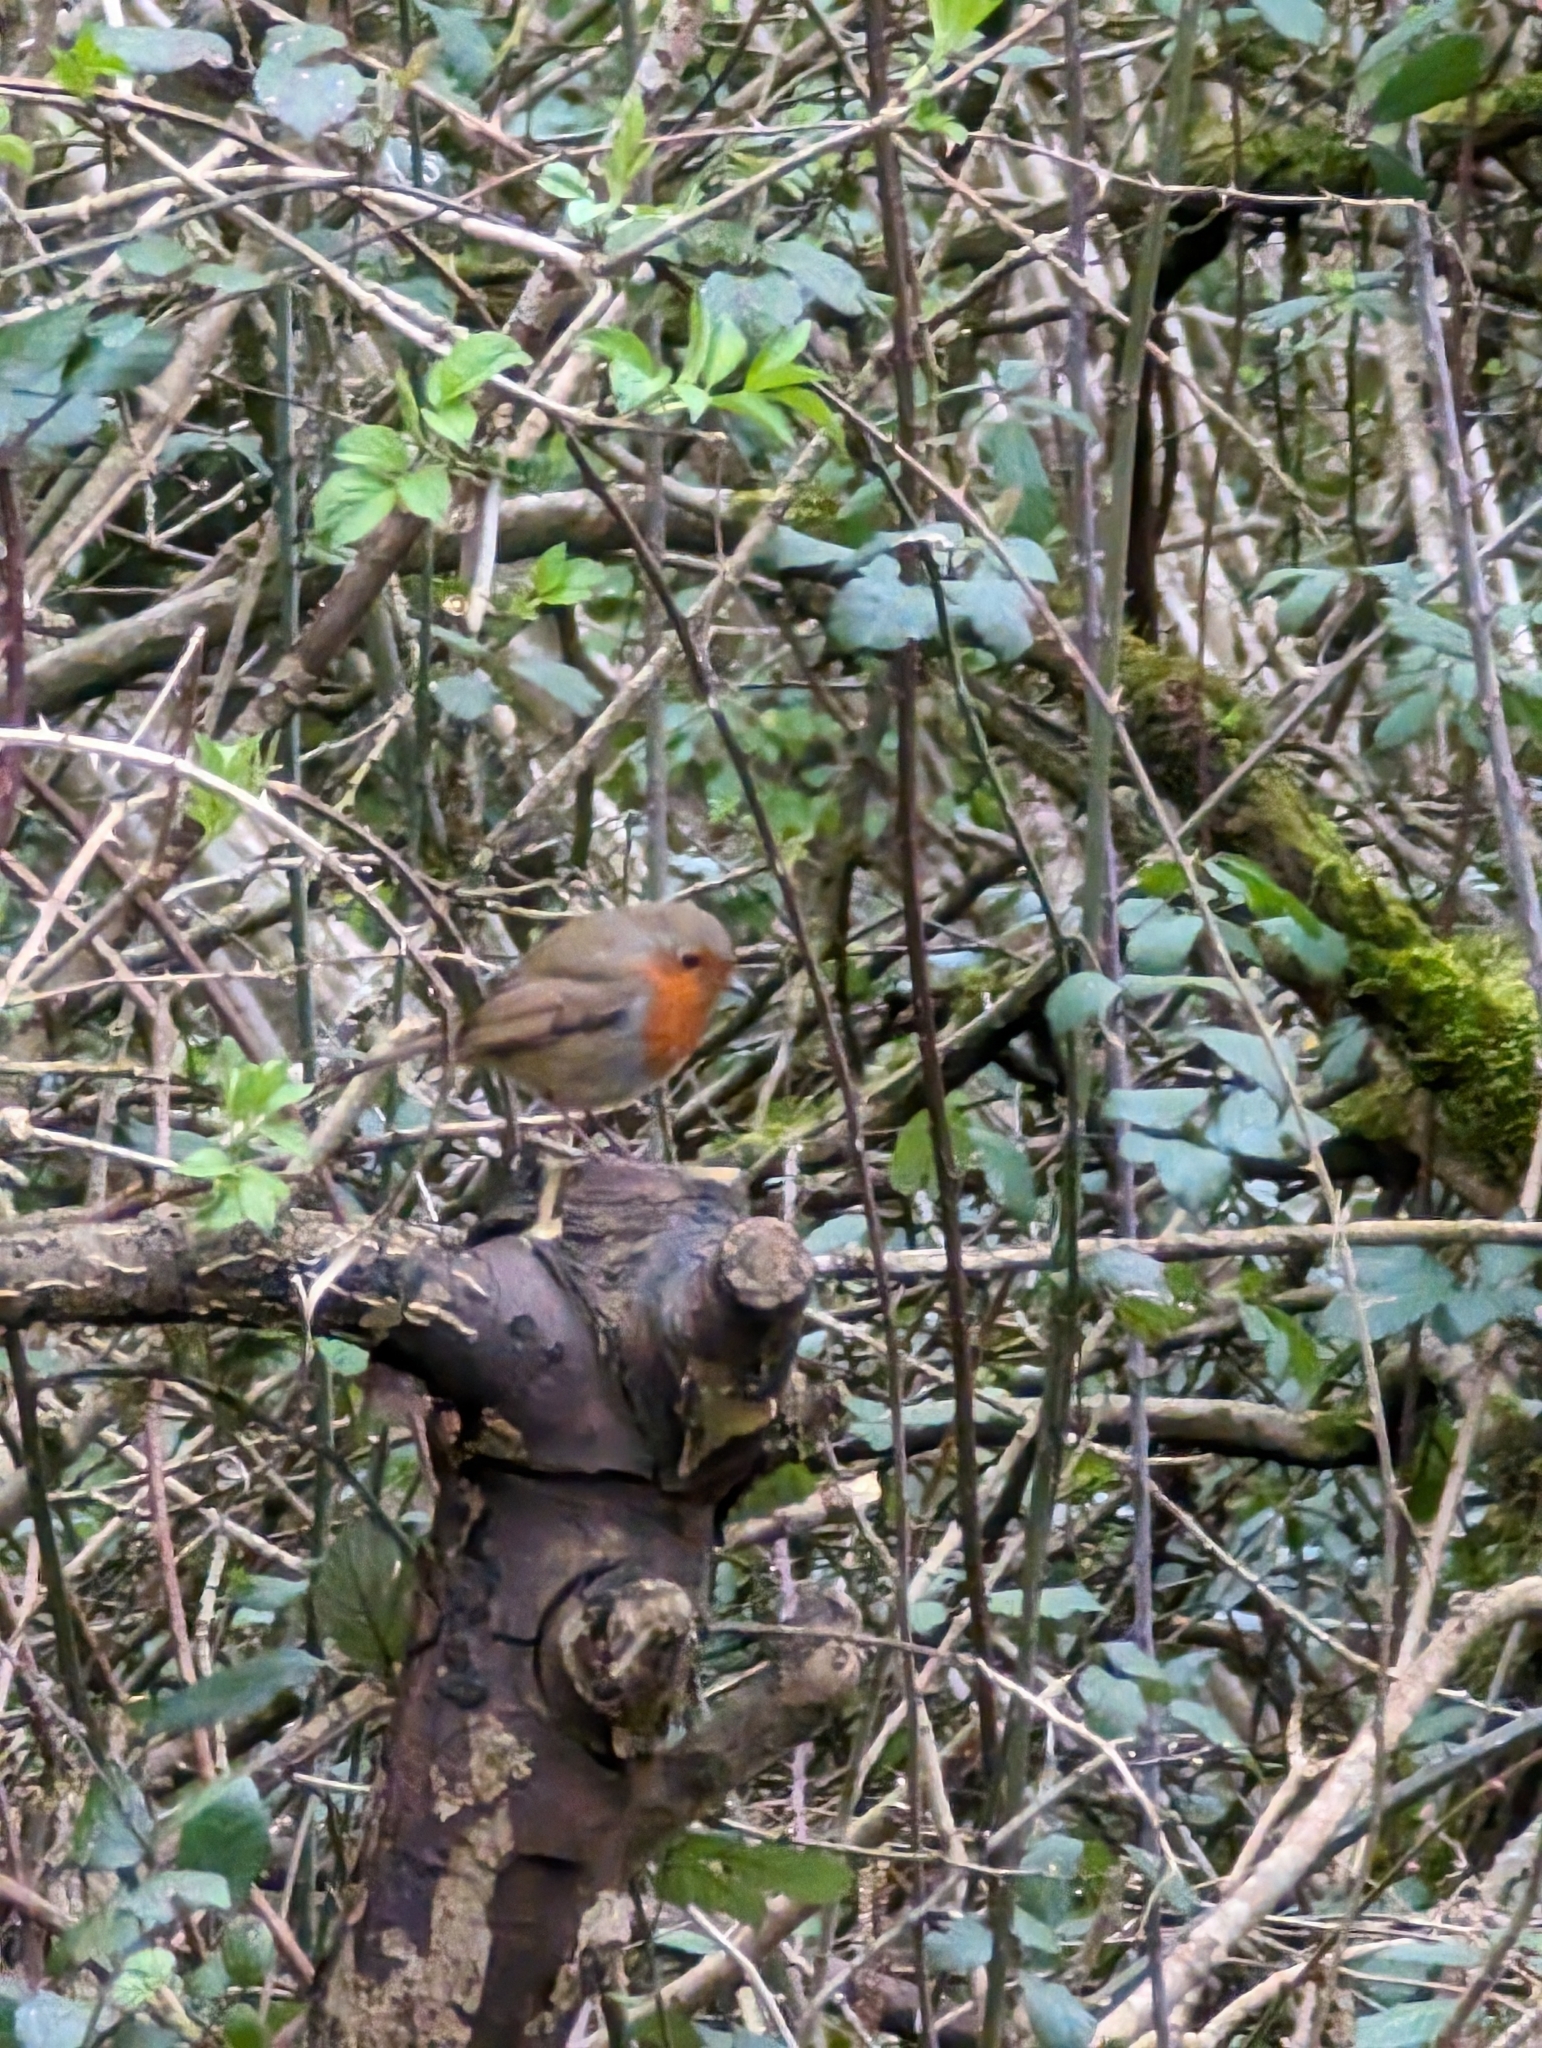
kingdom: Animalia
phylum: Chordata
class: Aves
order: Passeriformes
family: Muscicapidae
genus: Erithacus
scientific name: Erithacus rubecula
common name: European robin
